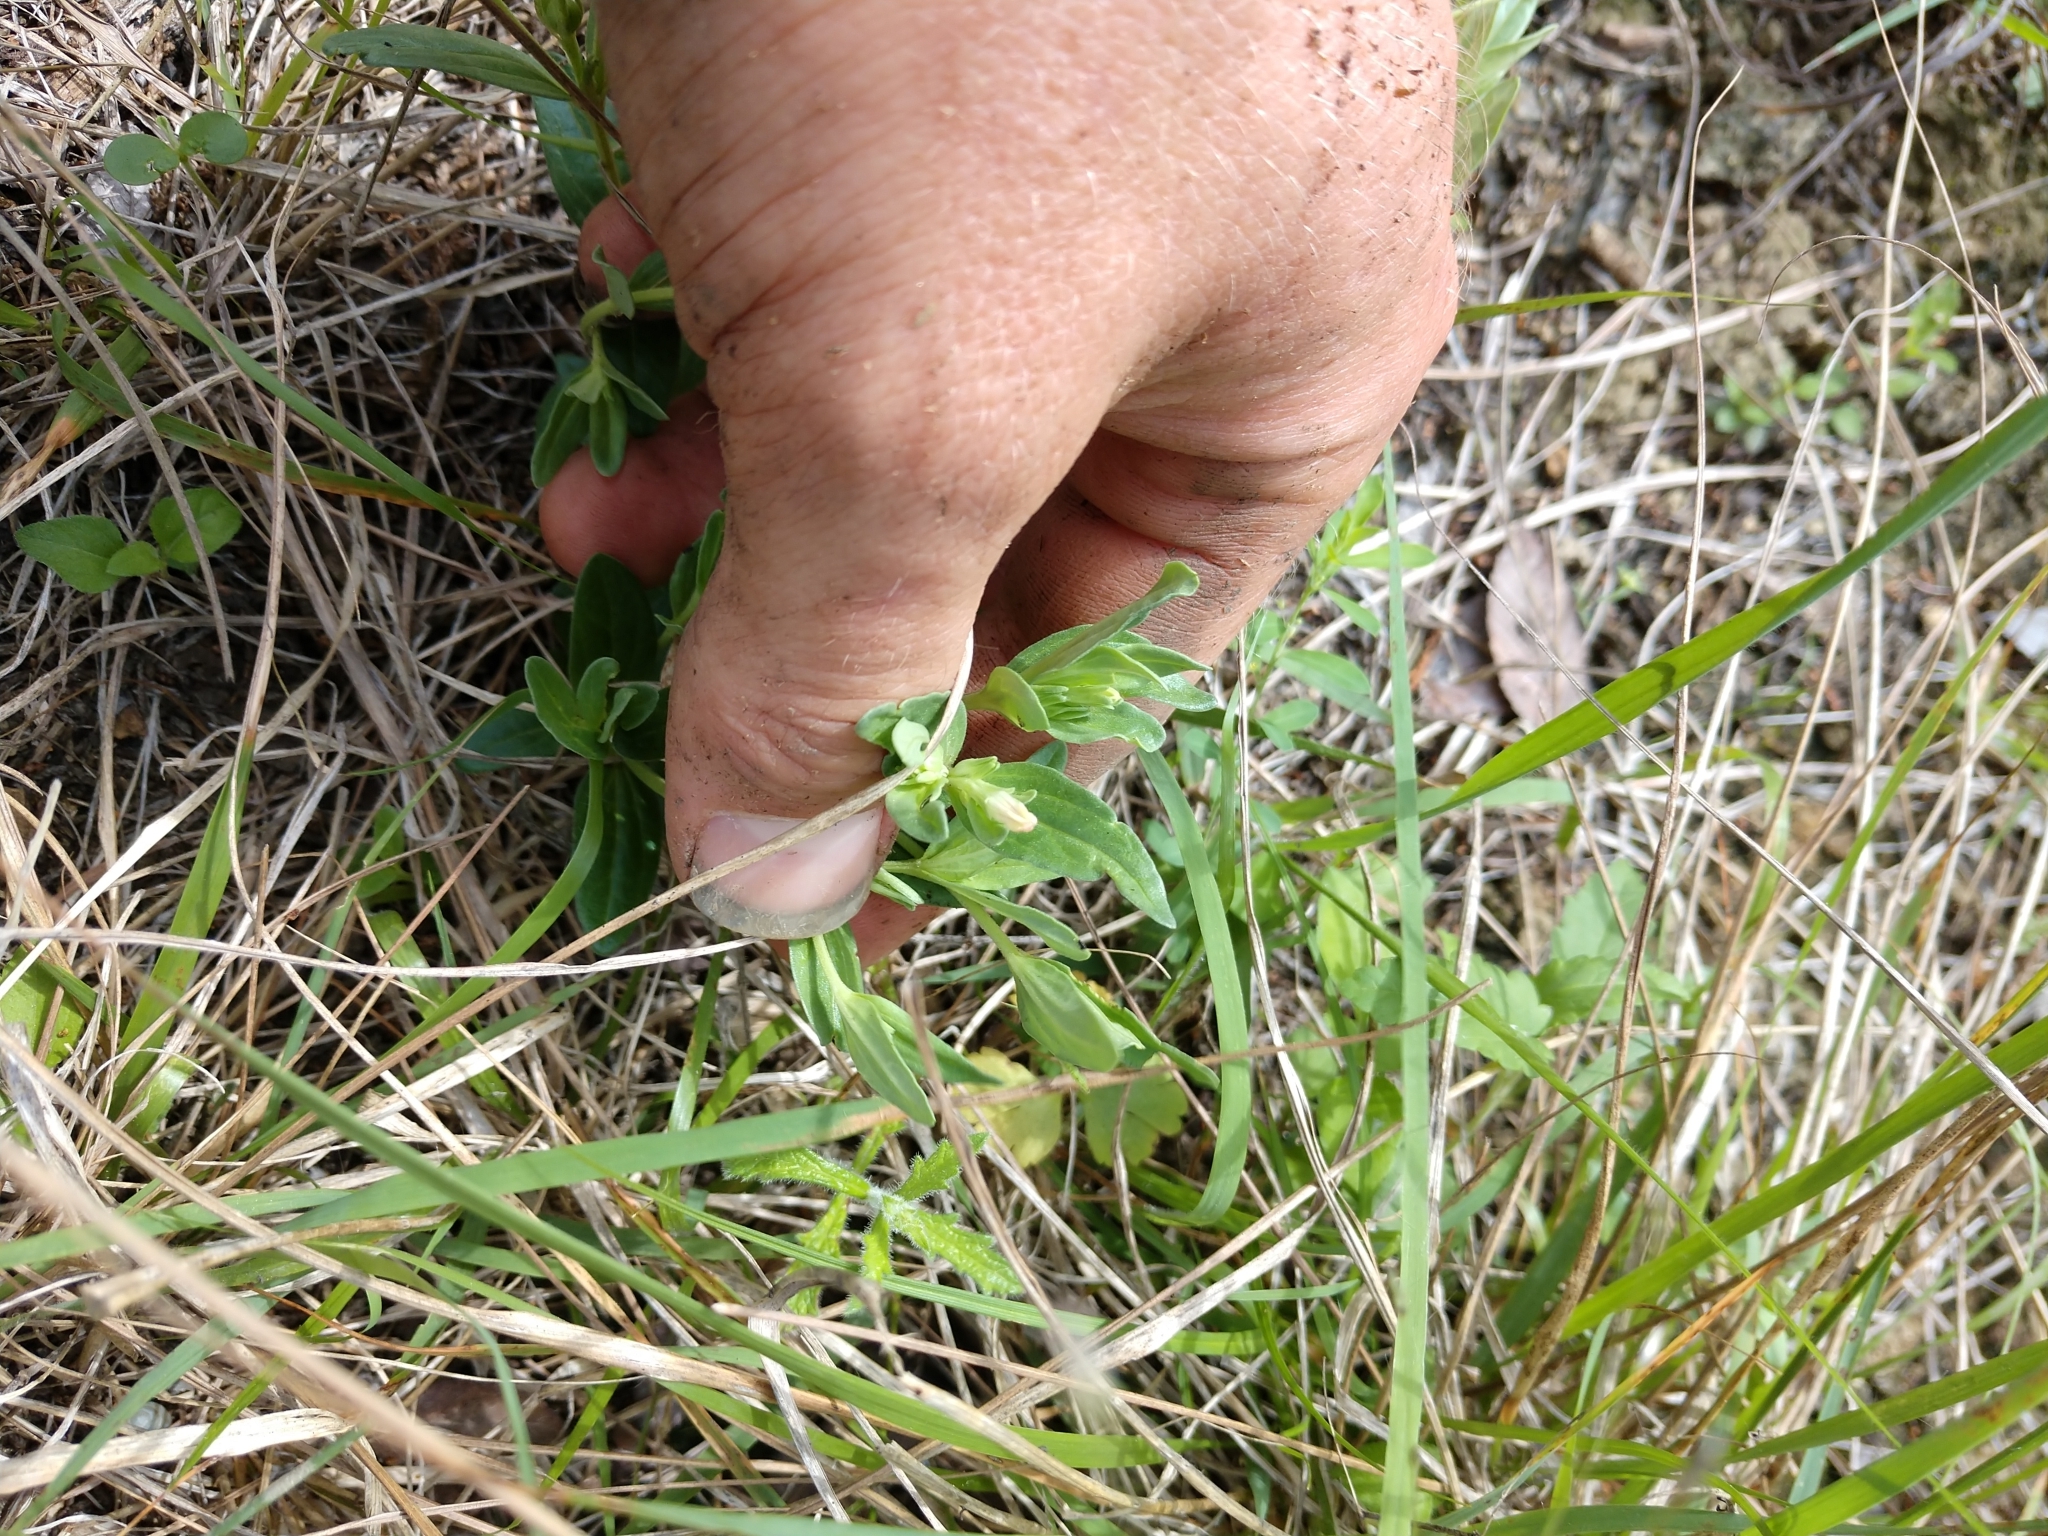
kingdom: Plantae
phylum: Tracheophyta
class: Magnoliopsida
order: Gentianales
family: Loganiaceae
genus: Spigelia
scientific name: Spigelia hedyotidea
